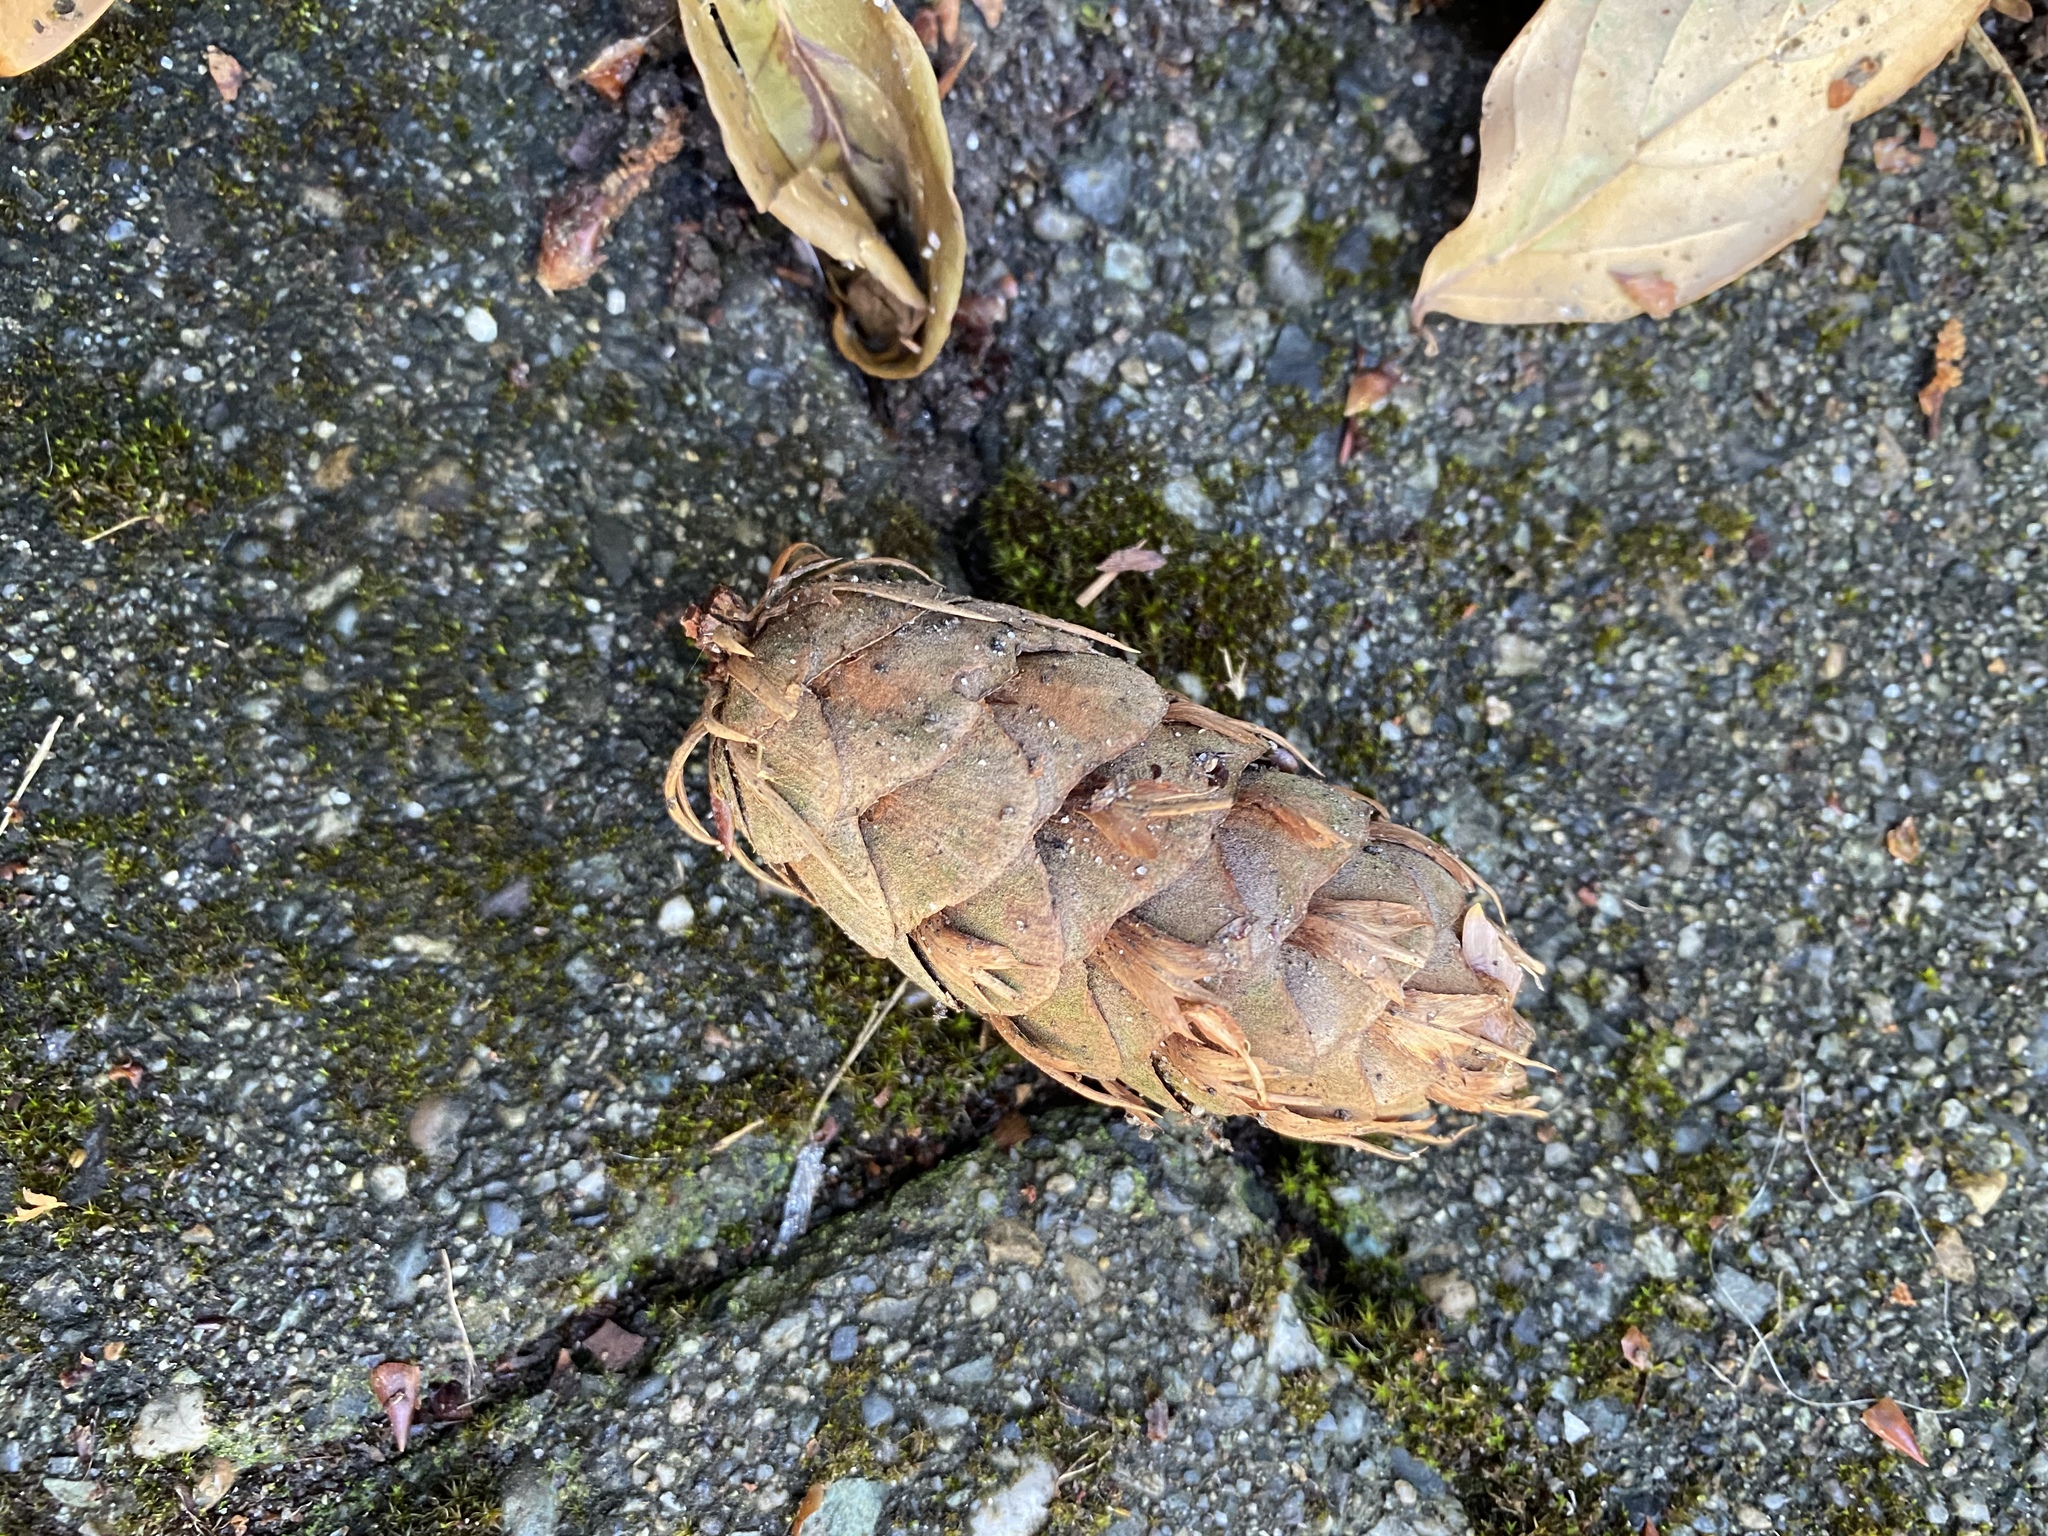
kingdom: Plantae
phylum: Tracheophyta
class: Pinopsida
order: Pinales
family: Pinaceae
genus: Pseudotsuga
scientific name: Pseudotsuga menziesii
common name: Douglas fir
